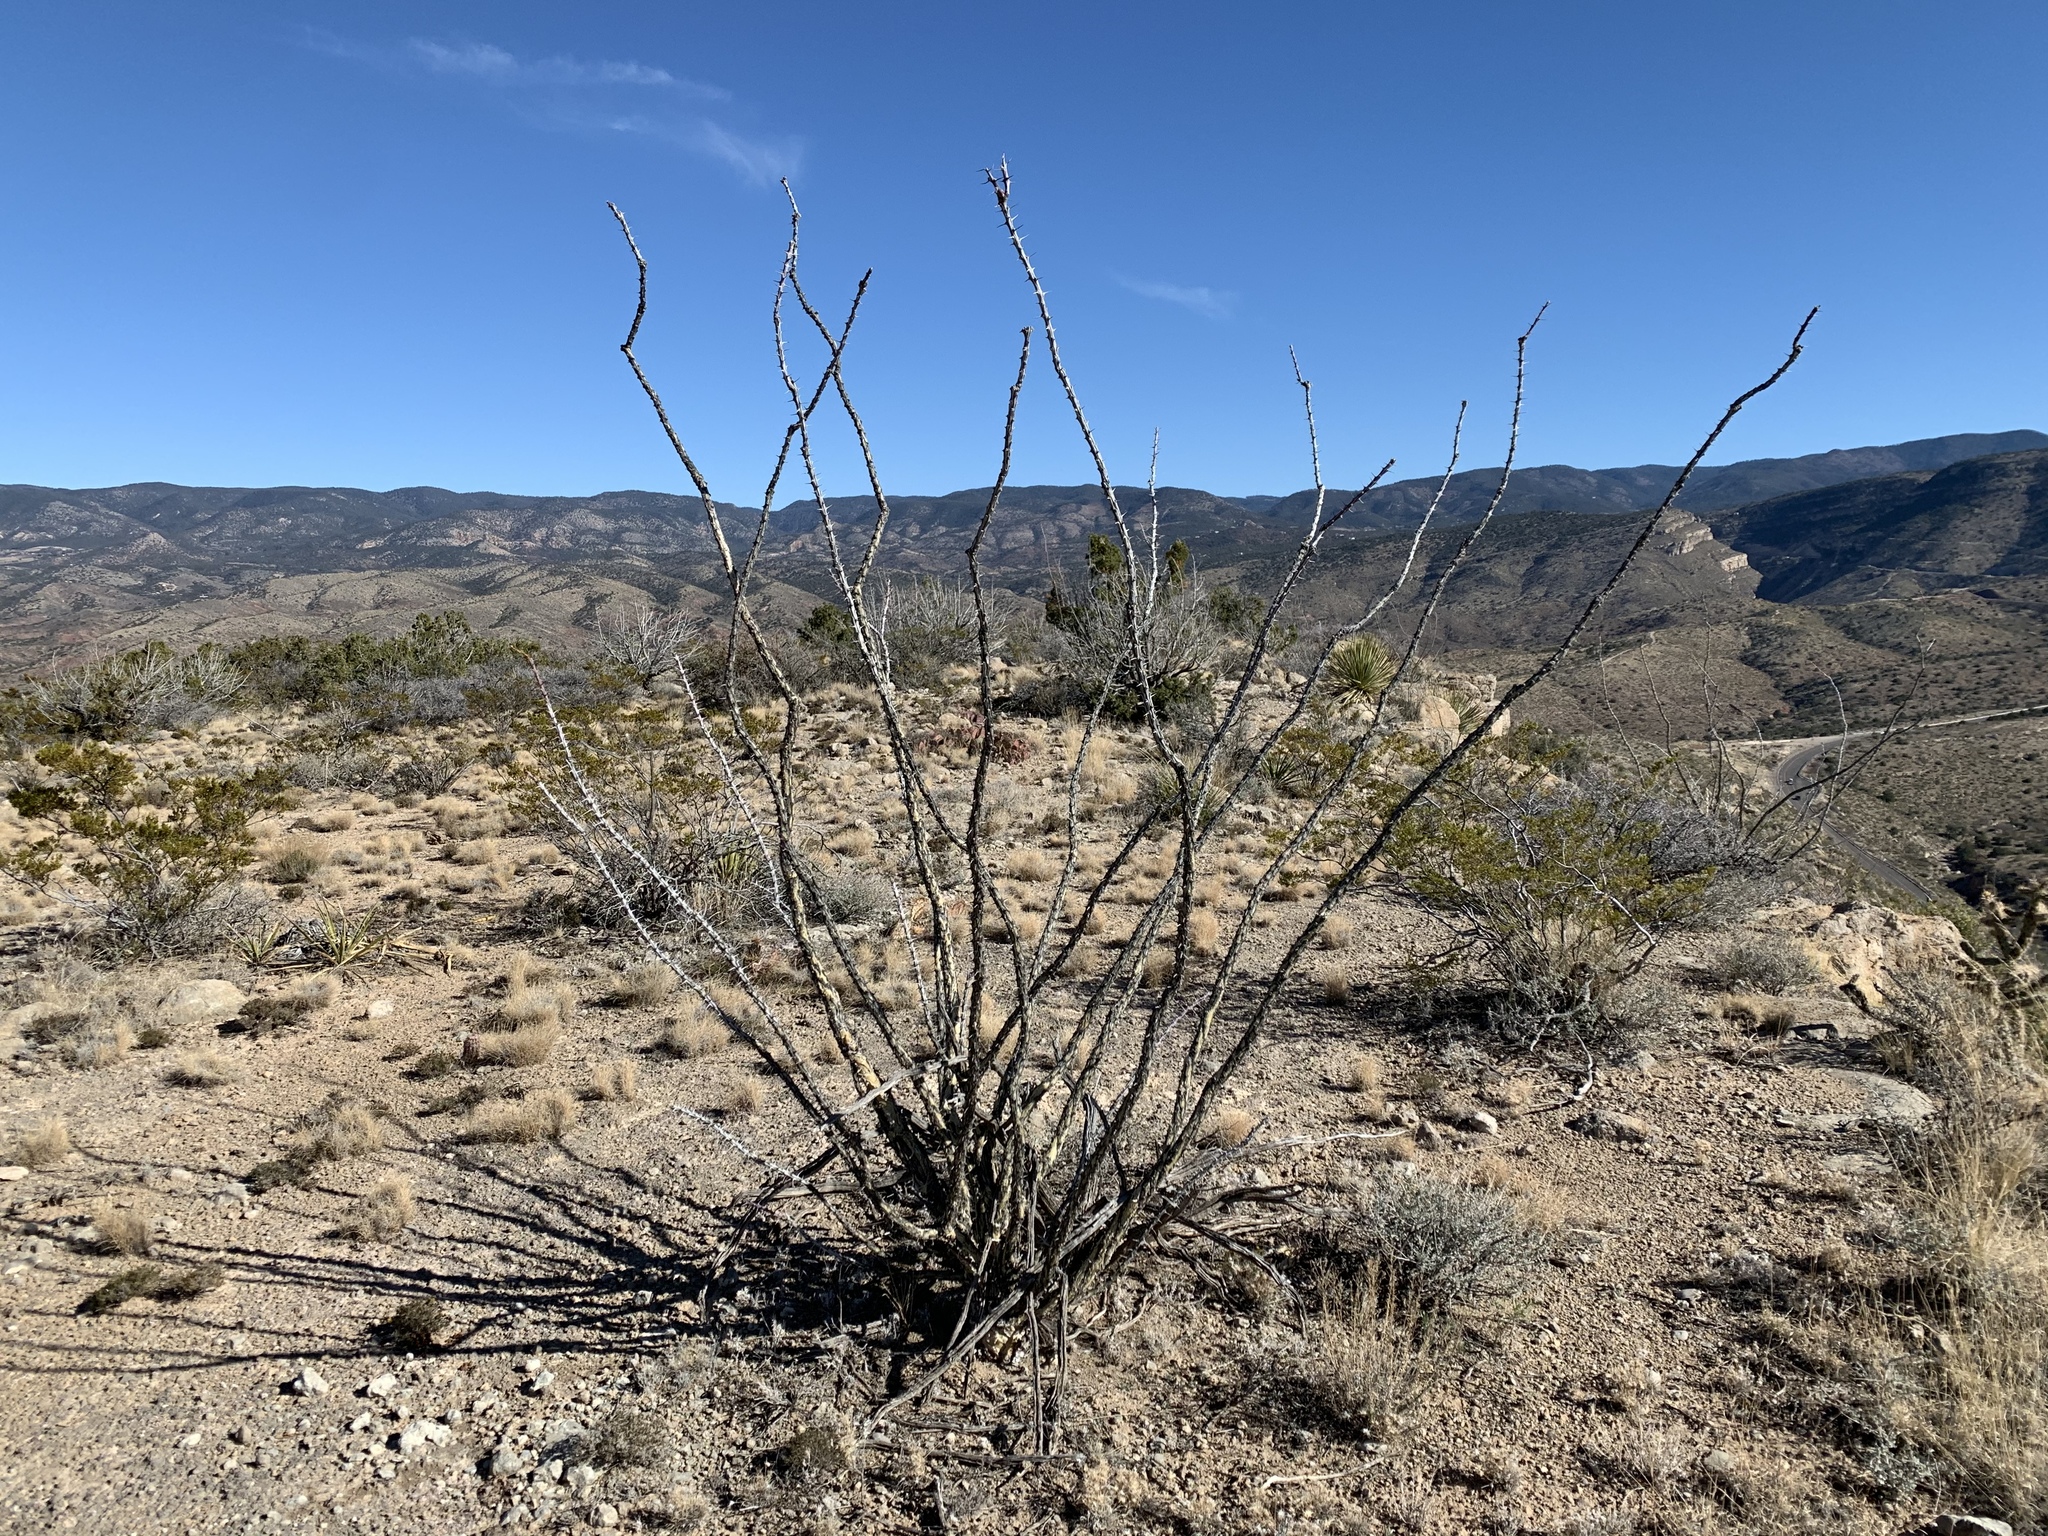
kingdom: Plantae
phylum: Tracheophyta
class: Magnoliopsida
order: Ericales
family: Fouquieriaceae
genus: Fouquieria
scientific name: Fouquieria splendens
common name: Vine-cactus
